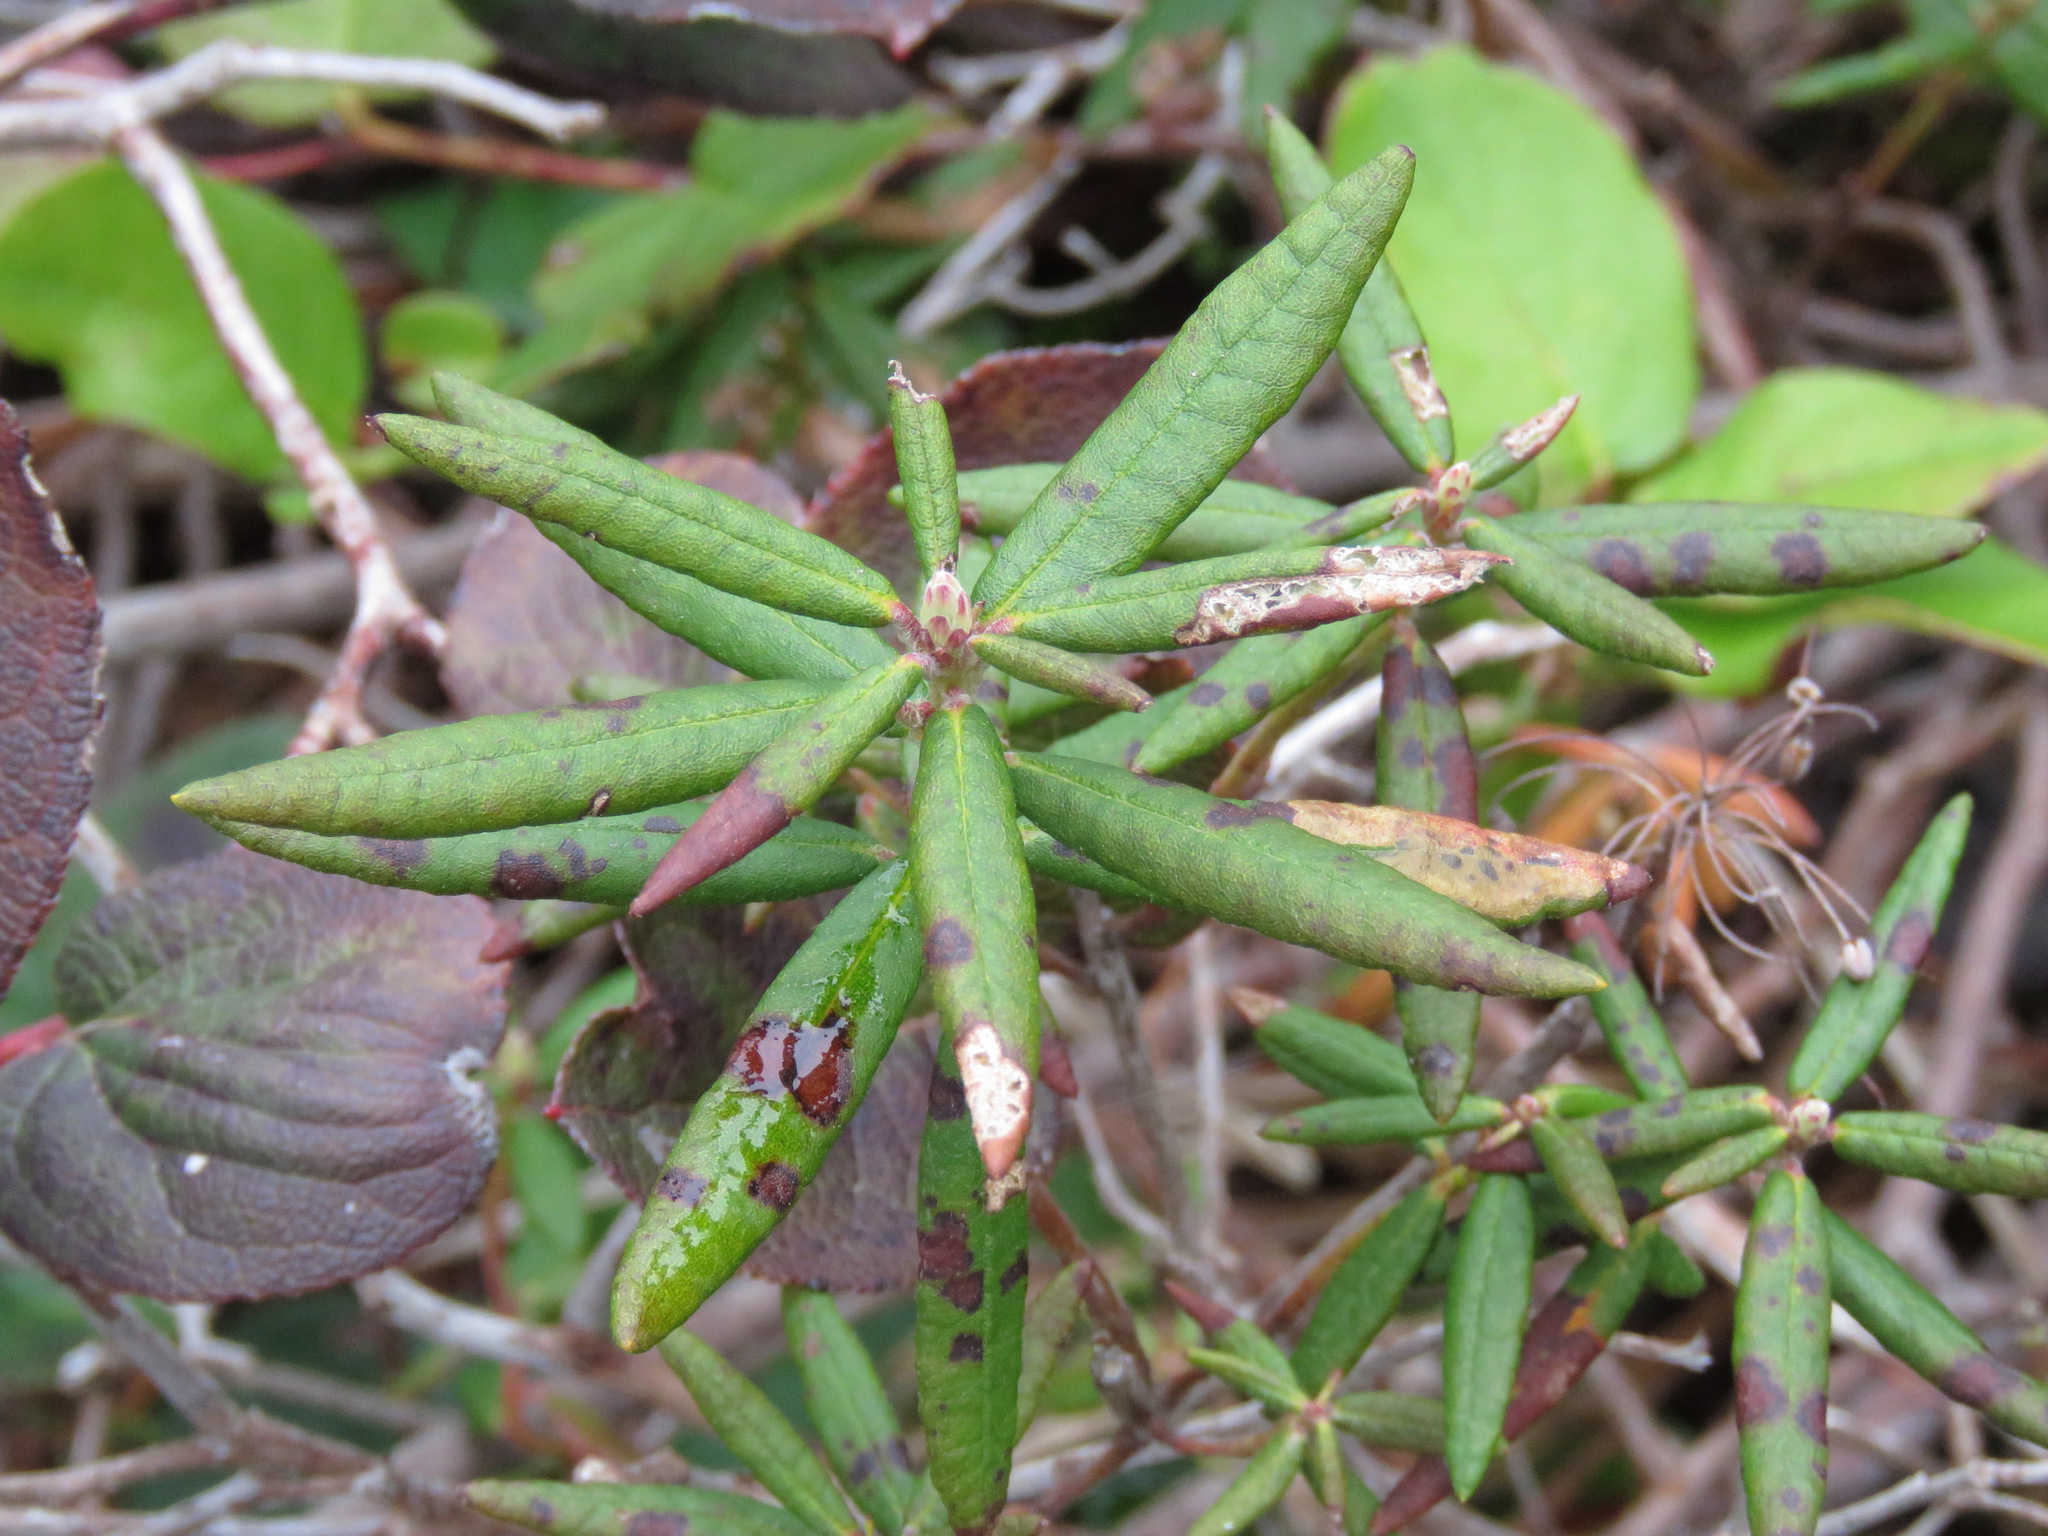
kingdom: Plantae
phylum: Tracheophyta
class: Magnoliopsida
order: Ericales
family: Ericaceae
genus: Rhododendron
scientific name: Rhododendron groenlandicum
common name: Bog labrador tea
